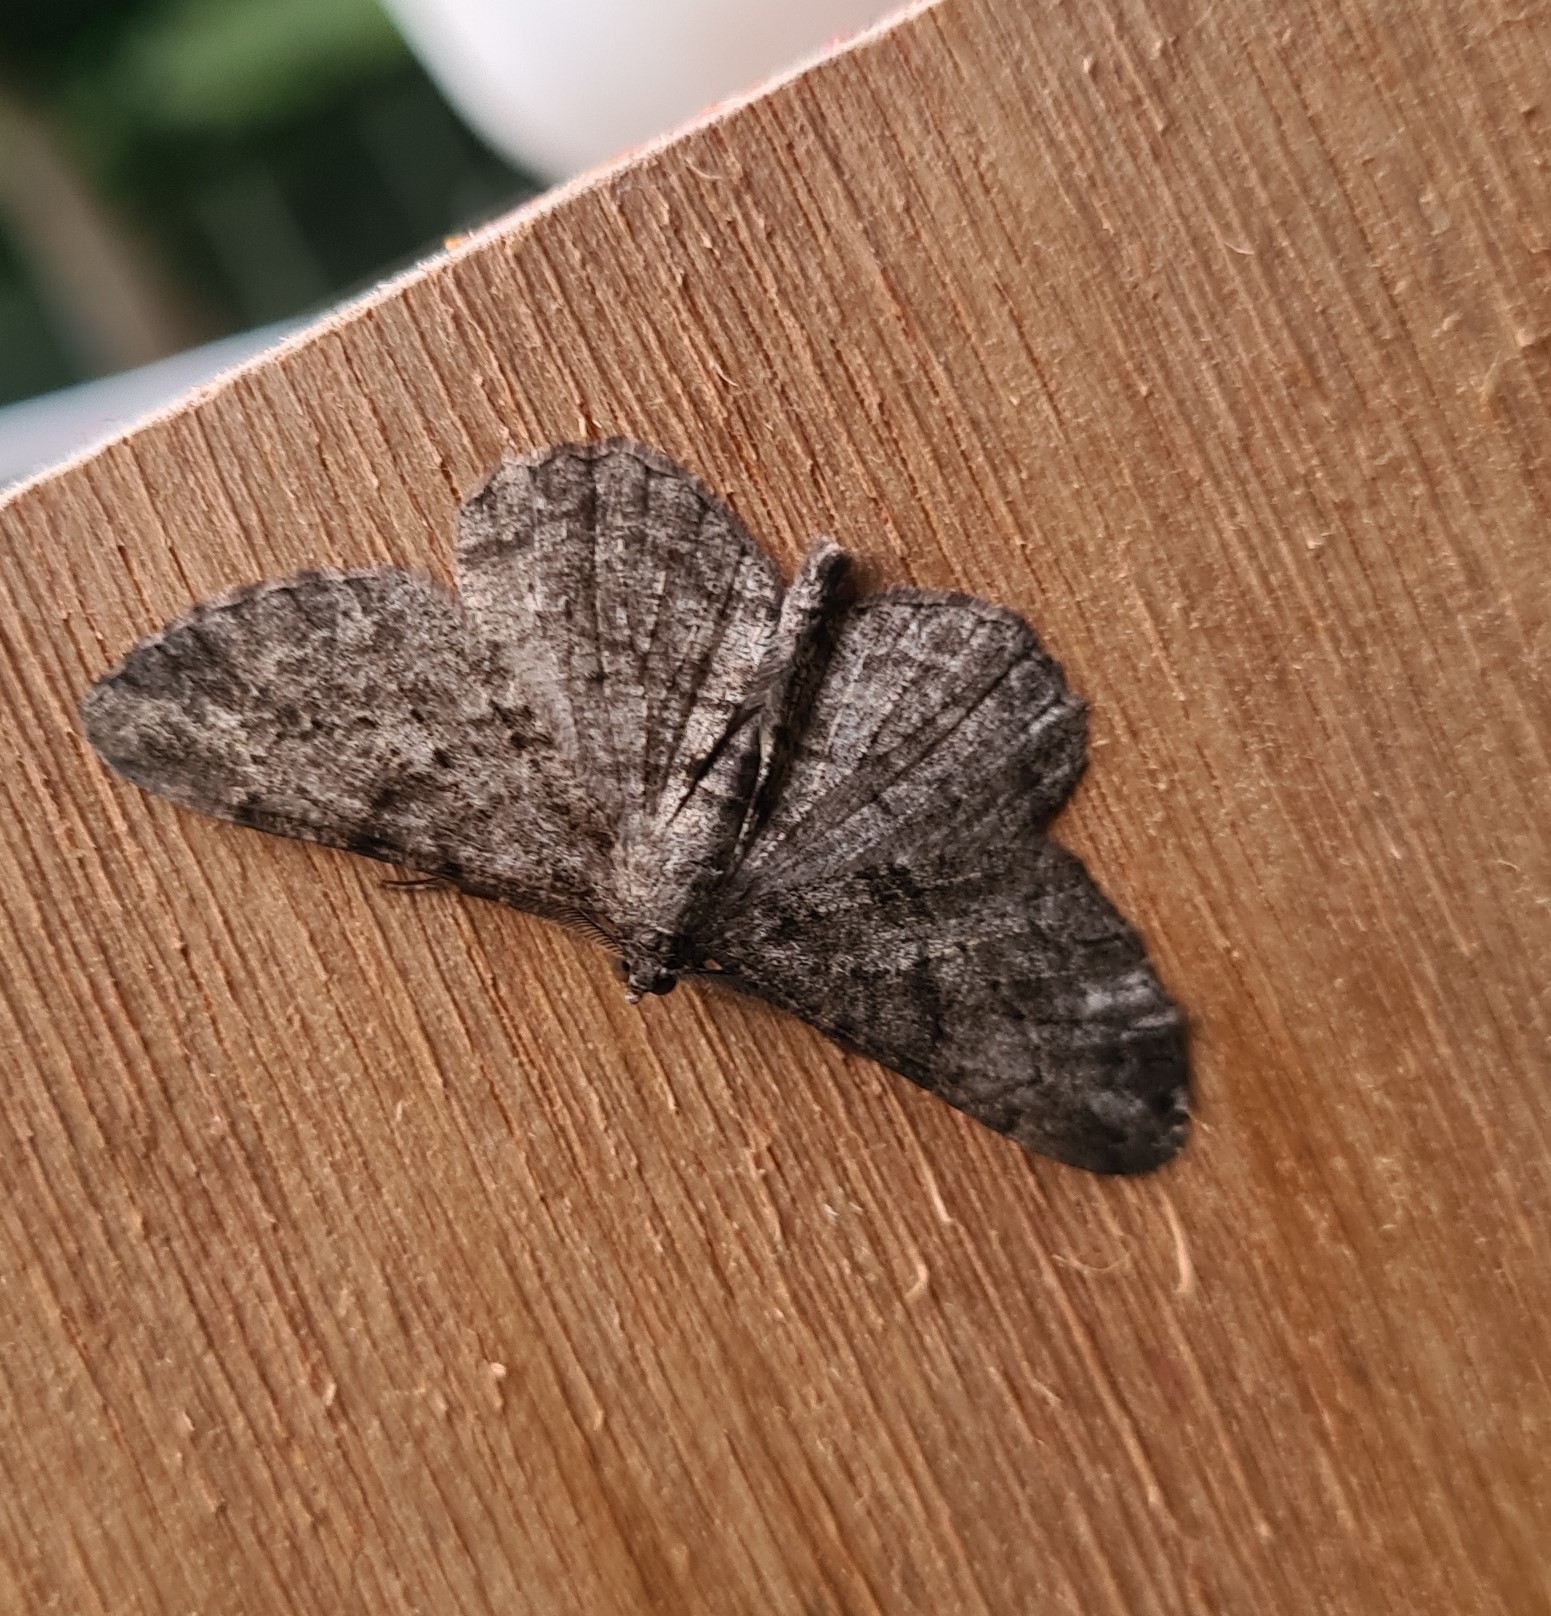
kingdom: Animalia
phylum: Arthropoda
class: Insecta
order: Lepidoptera
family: Geometridae
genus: Peribatodes
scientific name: Peribatodes rhomboidaria
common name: Willow beauty
